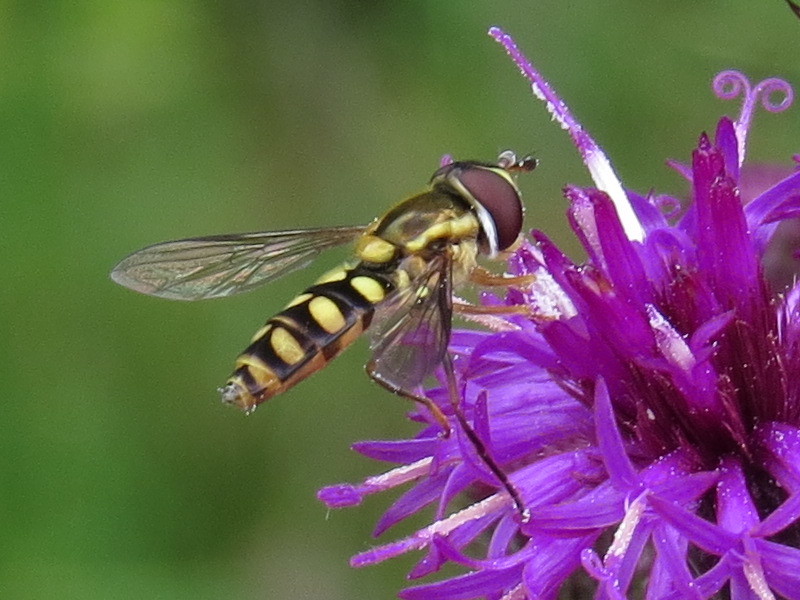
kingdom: Animalia
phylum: Arthropoda
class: Insecta
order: Diptera
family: Syrphidae
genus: Epistrophella
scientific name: Epistrophella emarginata
